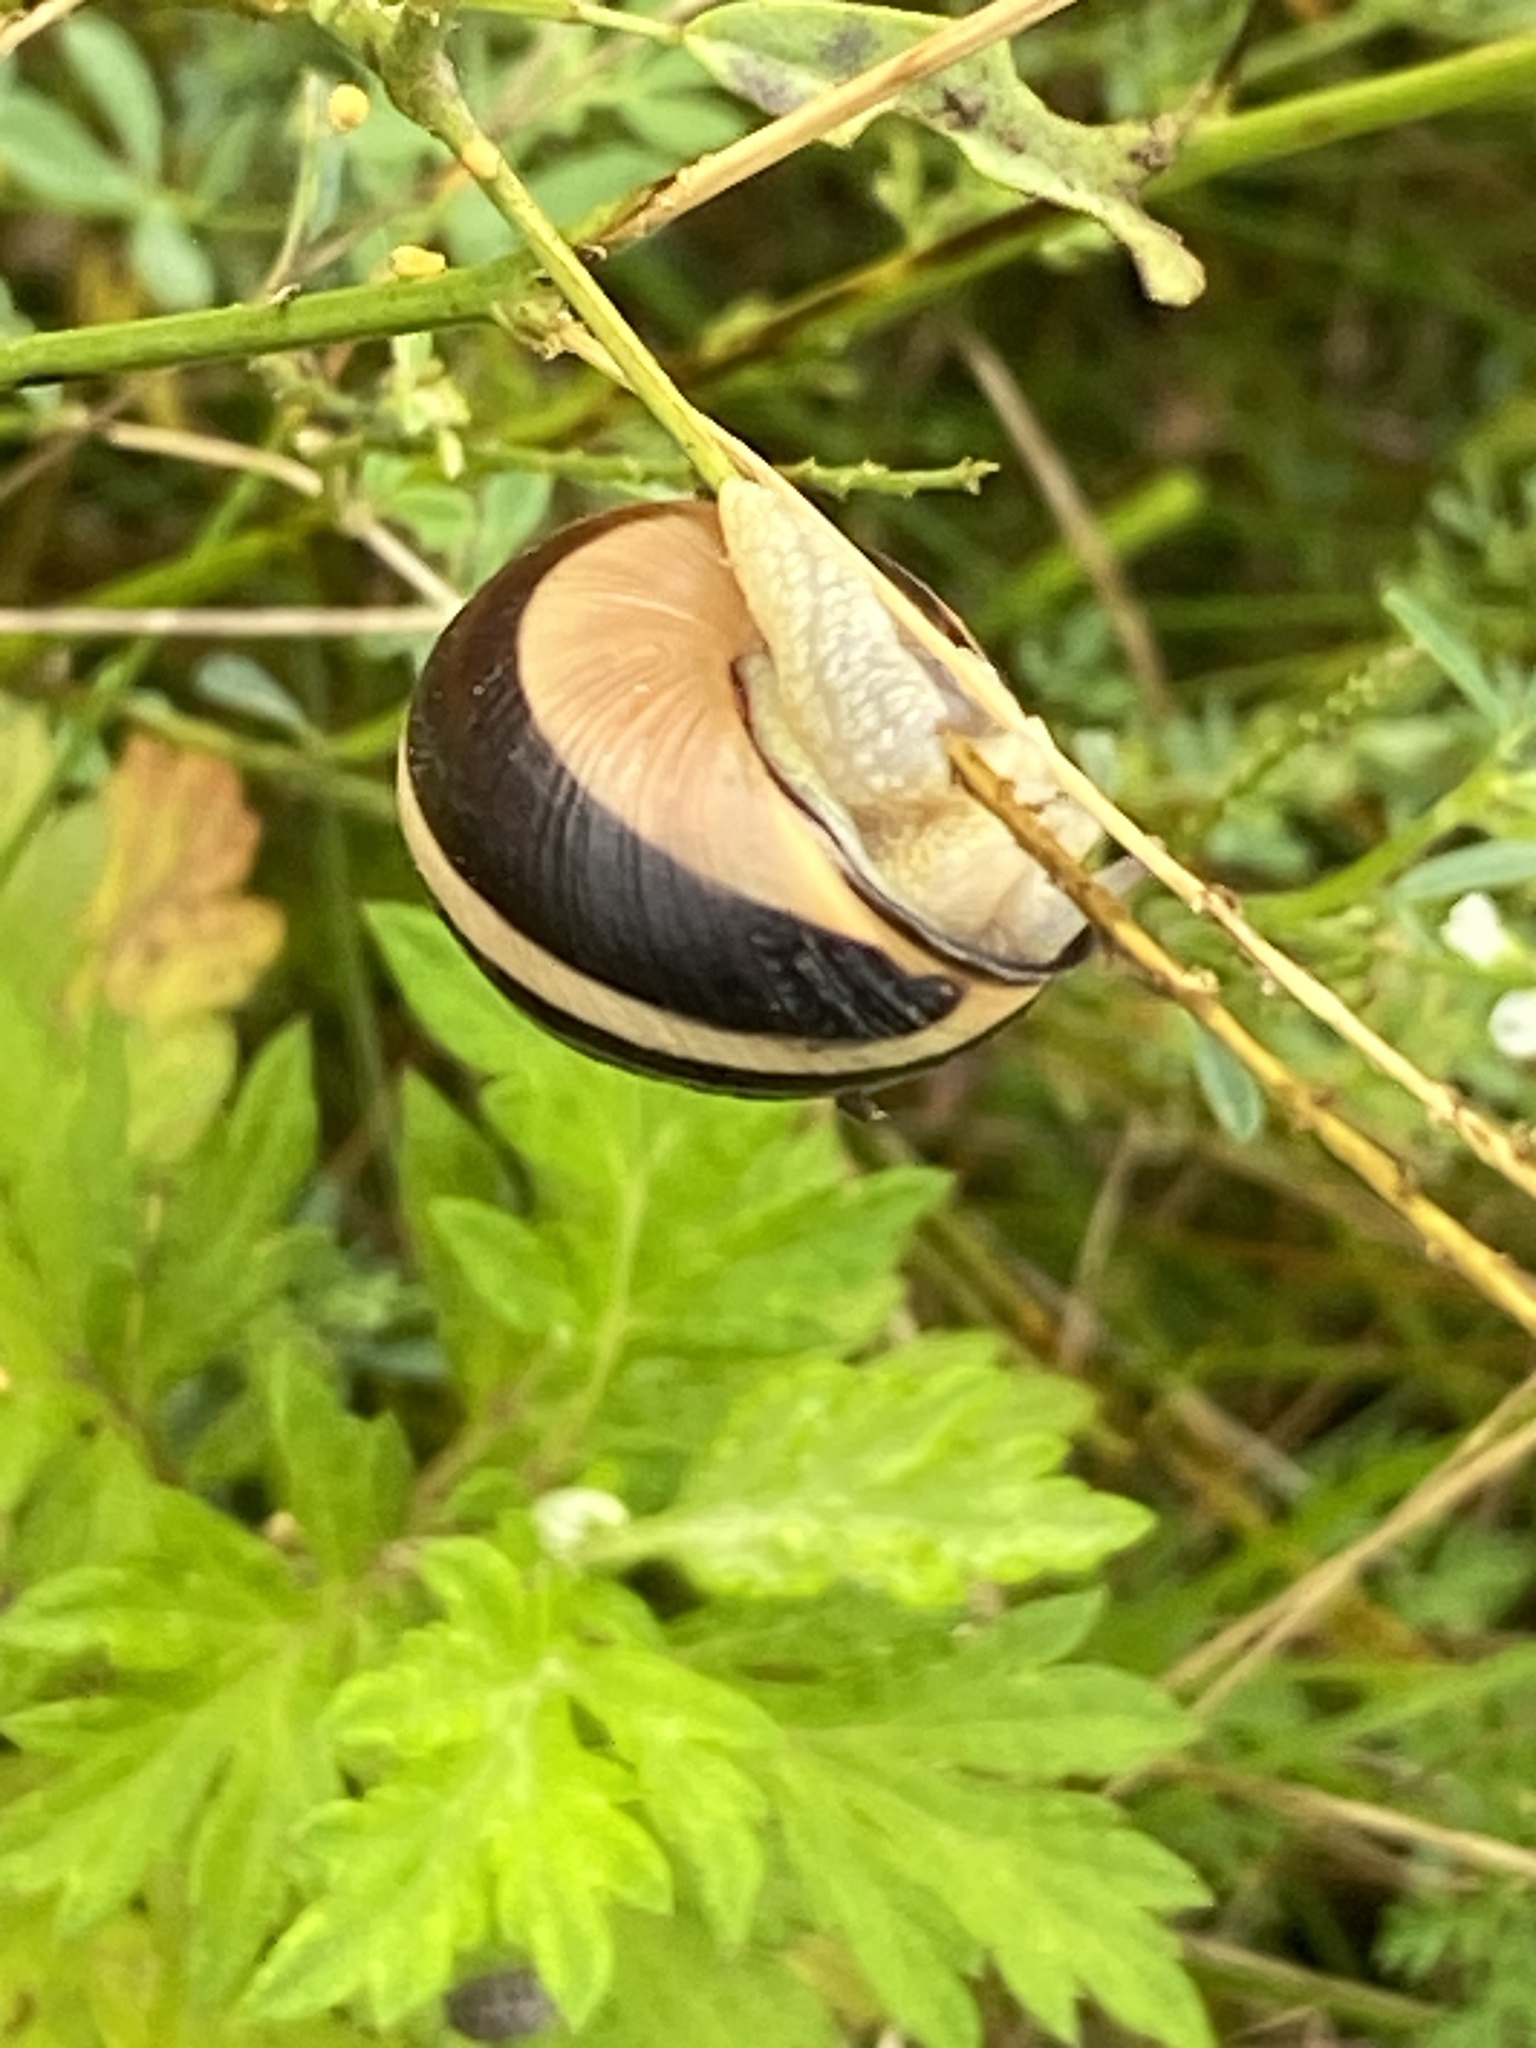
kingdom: Animalia
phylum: Mollusca
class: Gastropoda
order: Stylommatophora
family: Helicidae
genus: Cepaea
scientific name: Cepaea nemoralis
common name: Grovesnail
